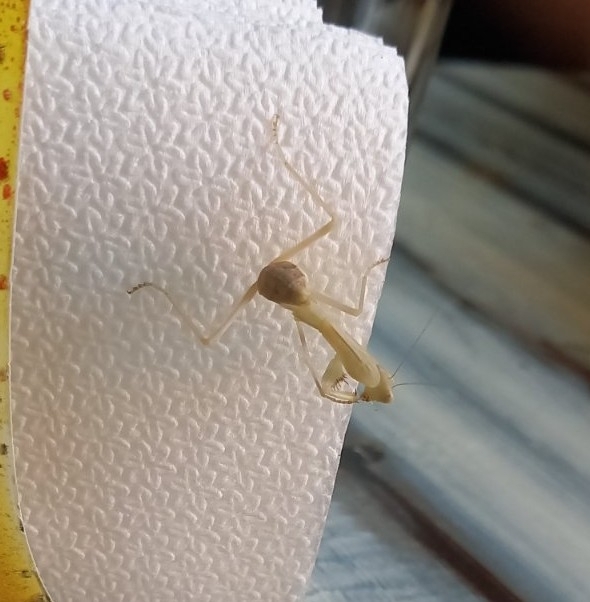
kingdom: Animalia
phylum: Arthropoda
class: Insecta
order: Mantodea
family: Mantidae
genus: Hierodula
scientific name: Hierodula transcaucasica
